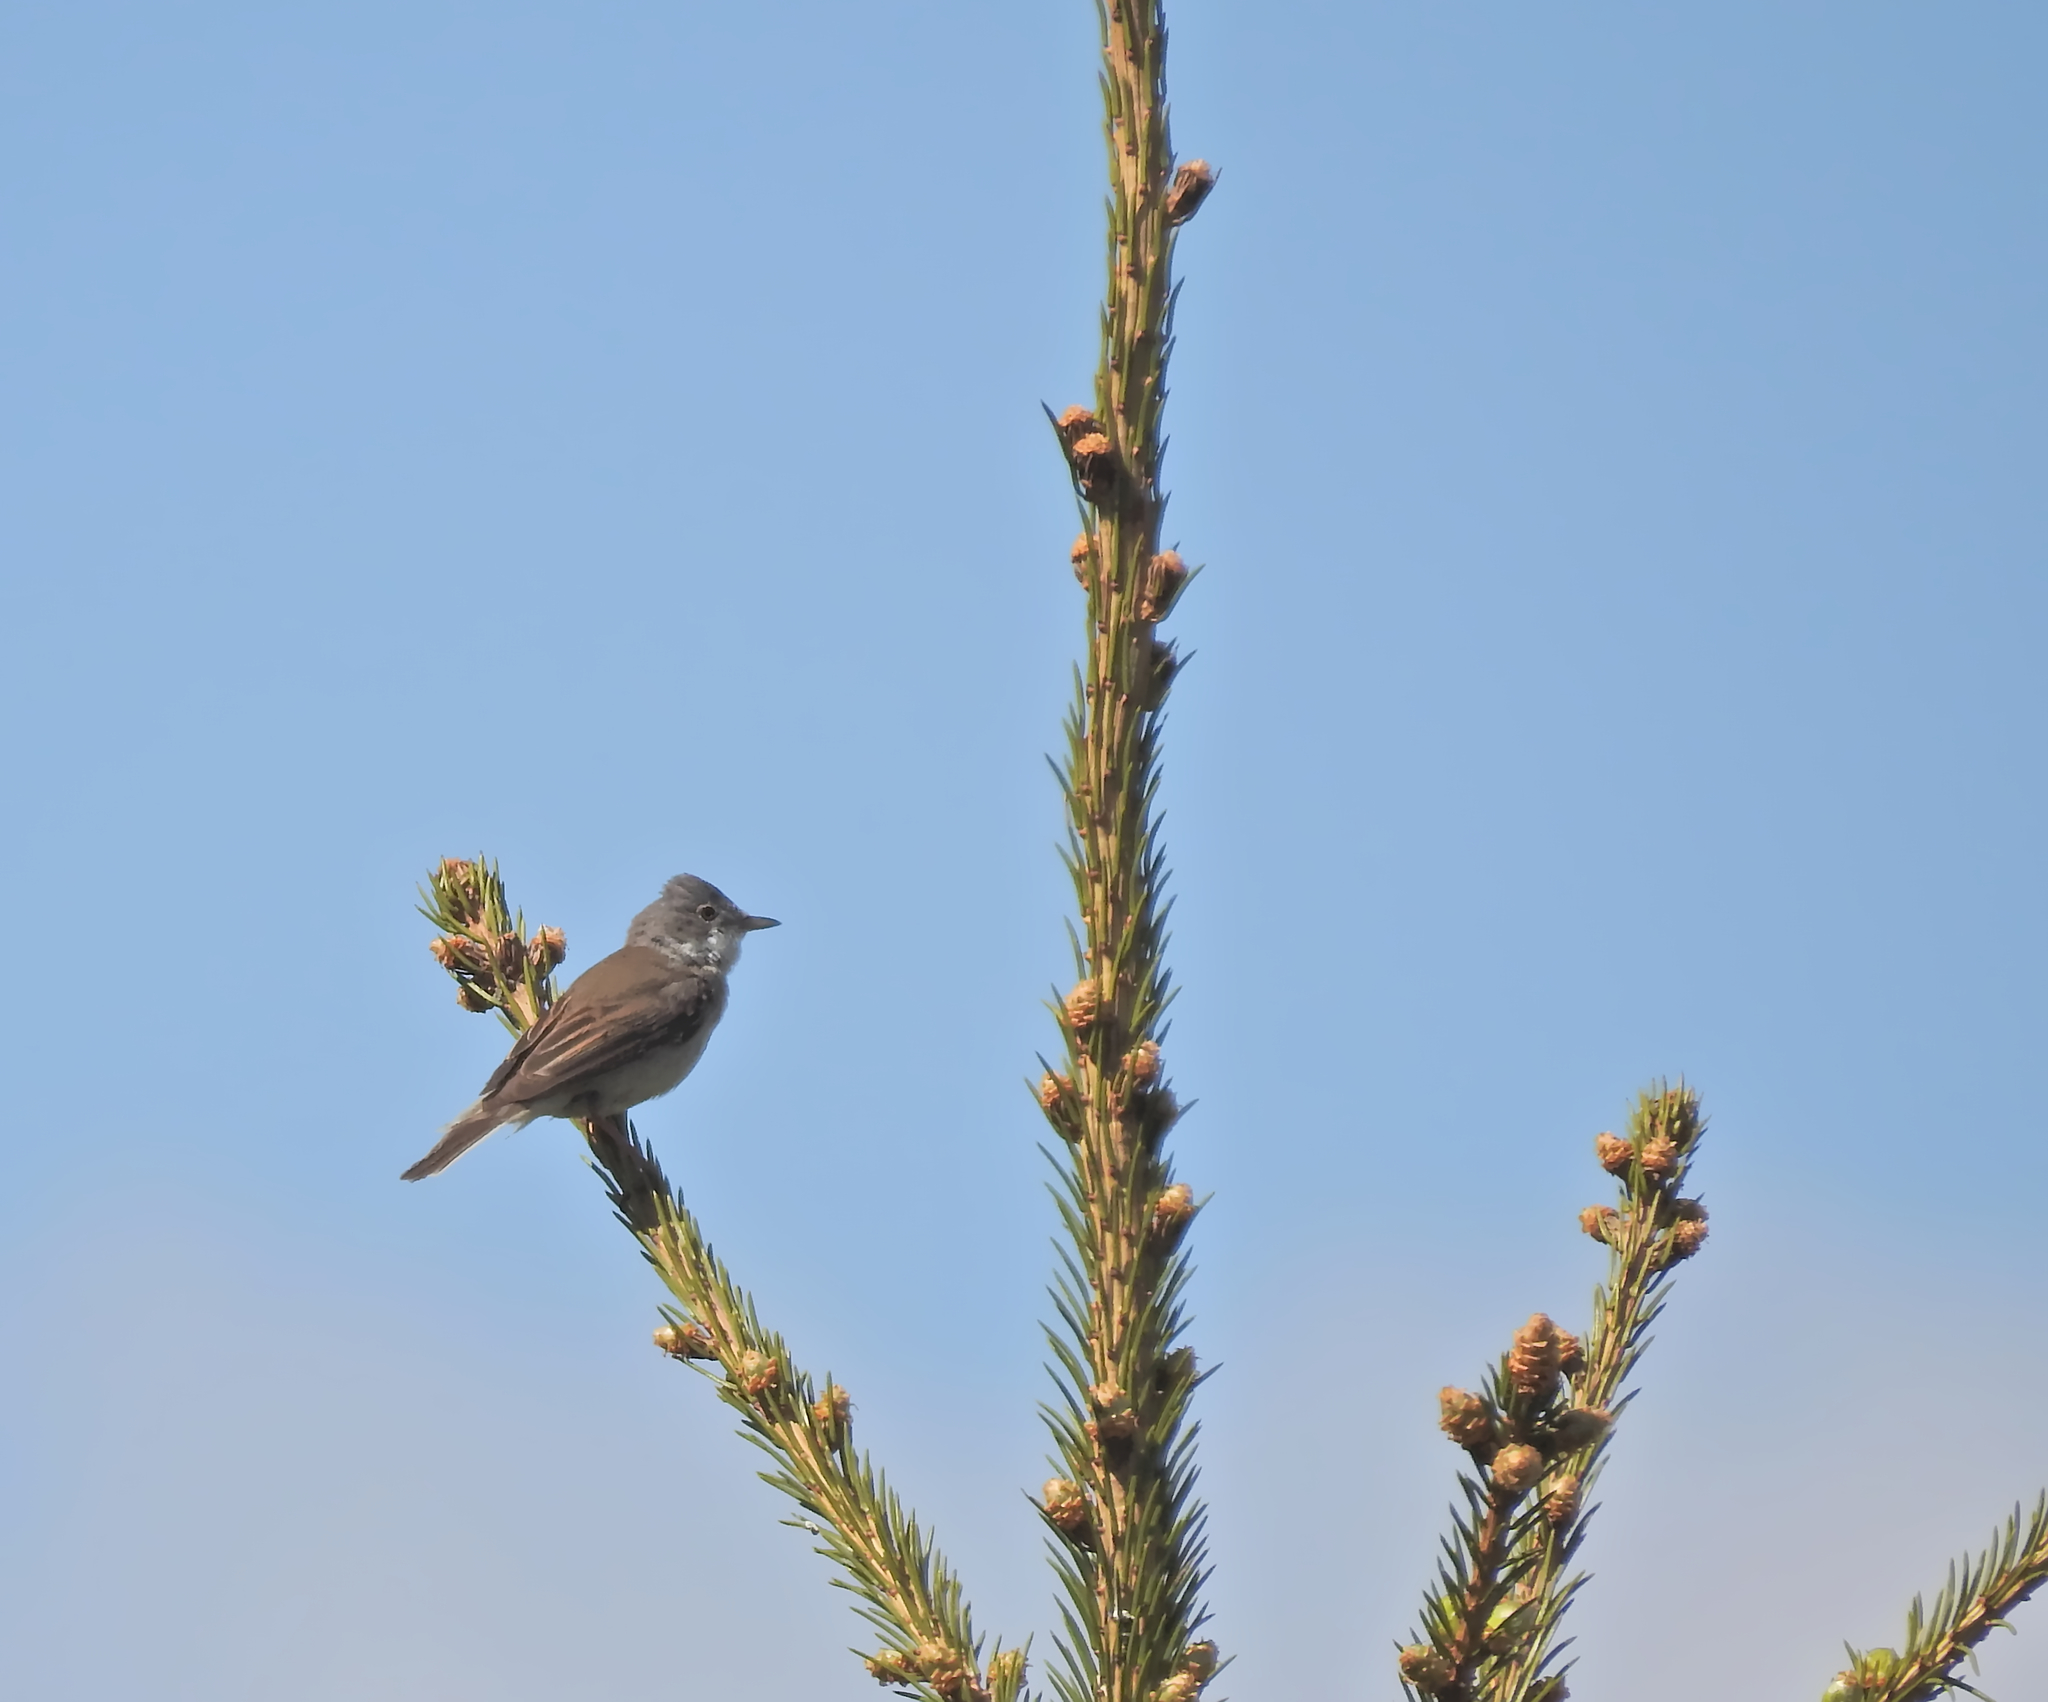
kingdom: Animalia
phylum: Chordata
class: Aves
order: Passeriformes
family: Sylviidae
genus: Sylvia
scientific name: Sylvia communis
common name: Common whitethroat
